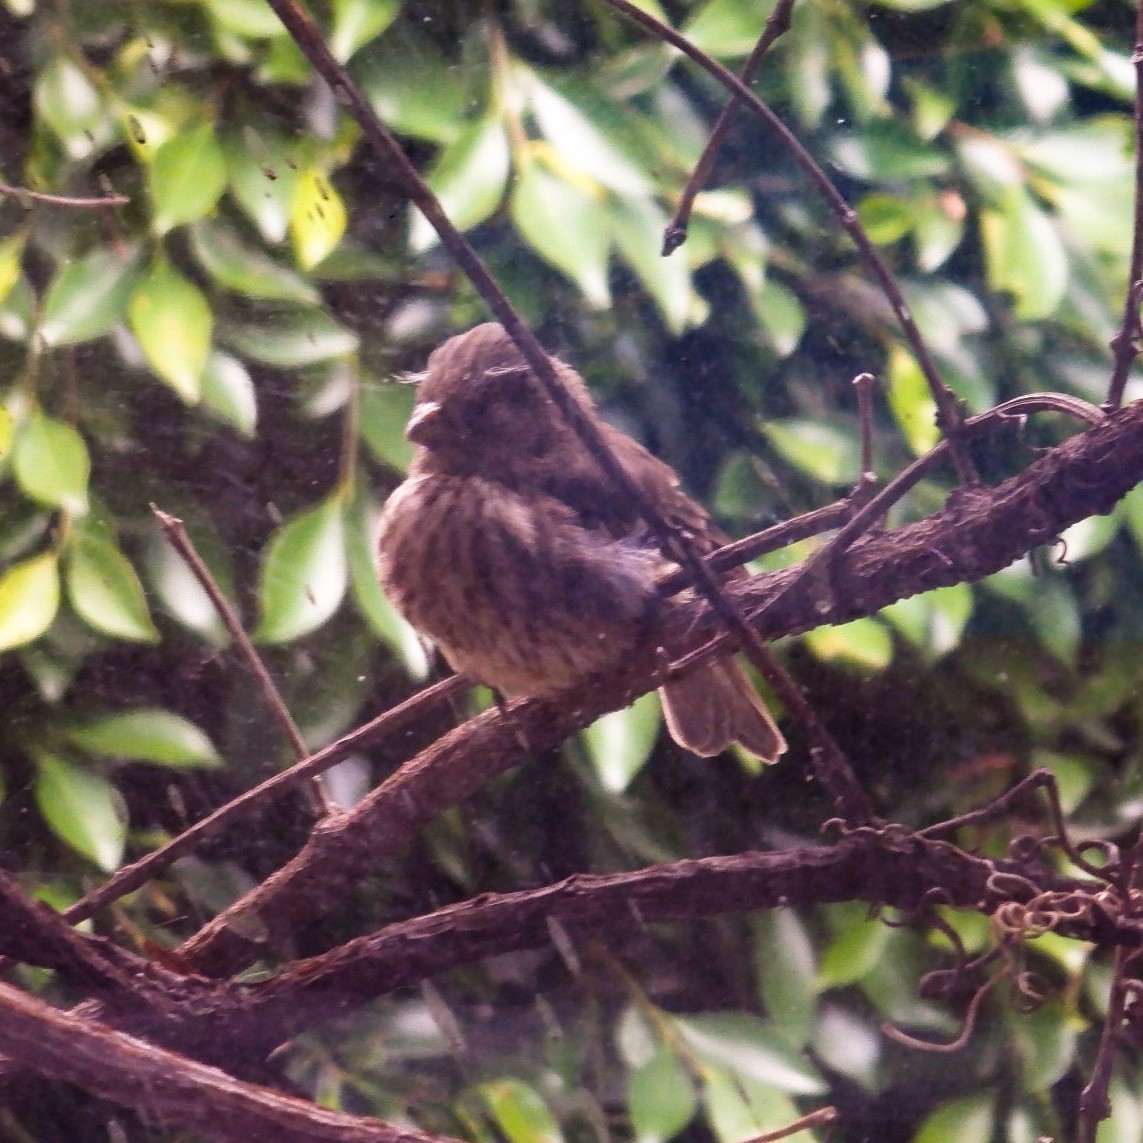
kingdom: Animalia
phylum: Chordata
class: Aves
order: Passeriformes
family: Fringillidae
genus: Haemorhous
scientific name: Haemorhous mexicanus
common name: House finch
